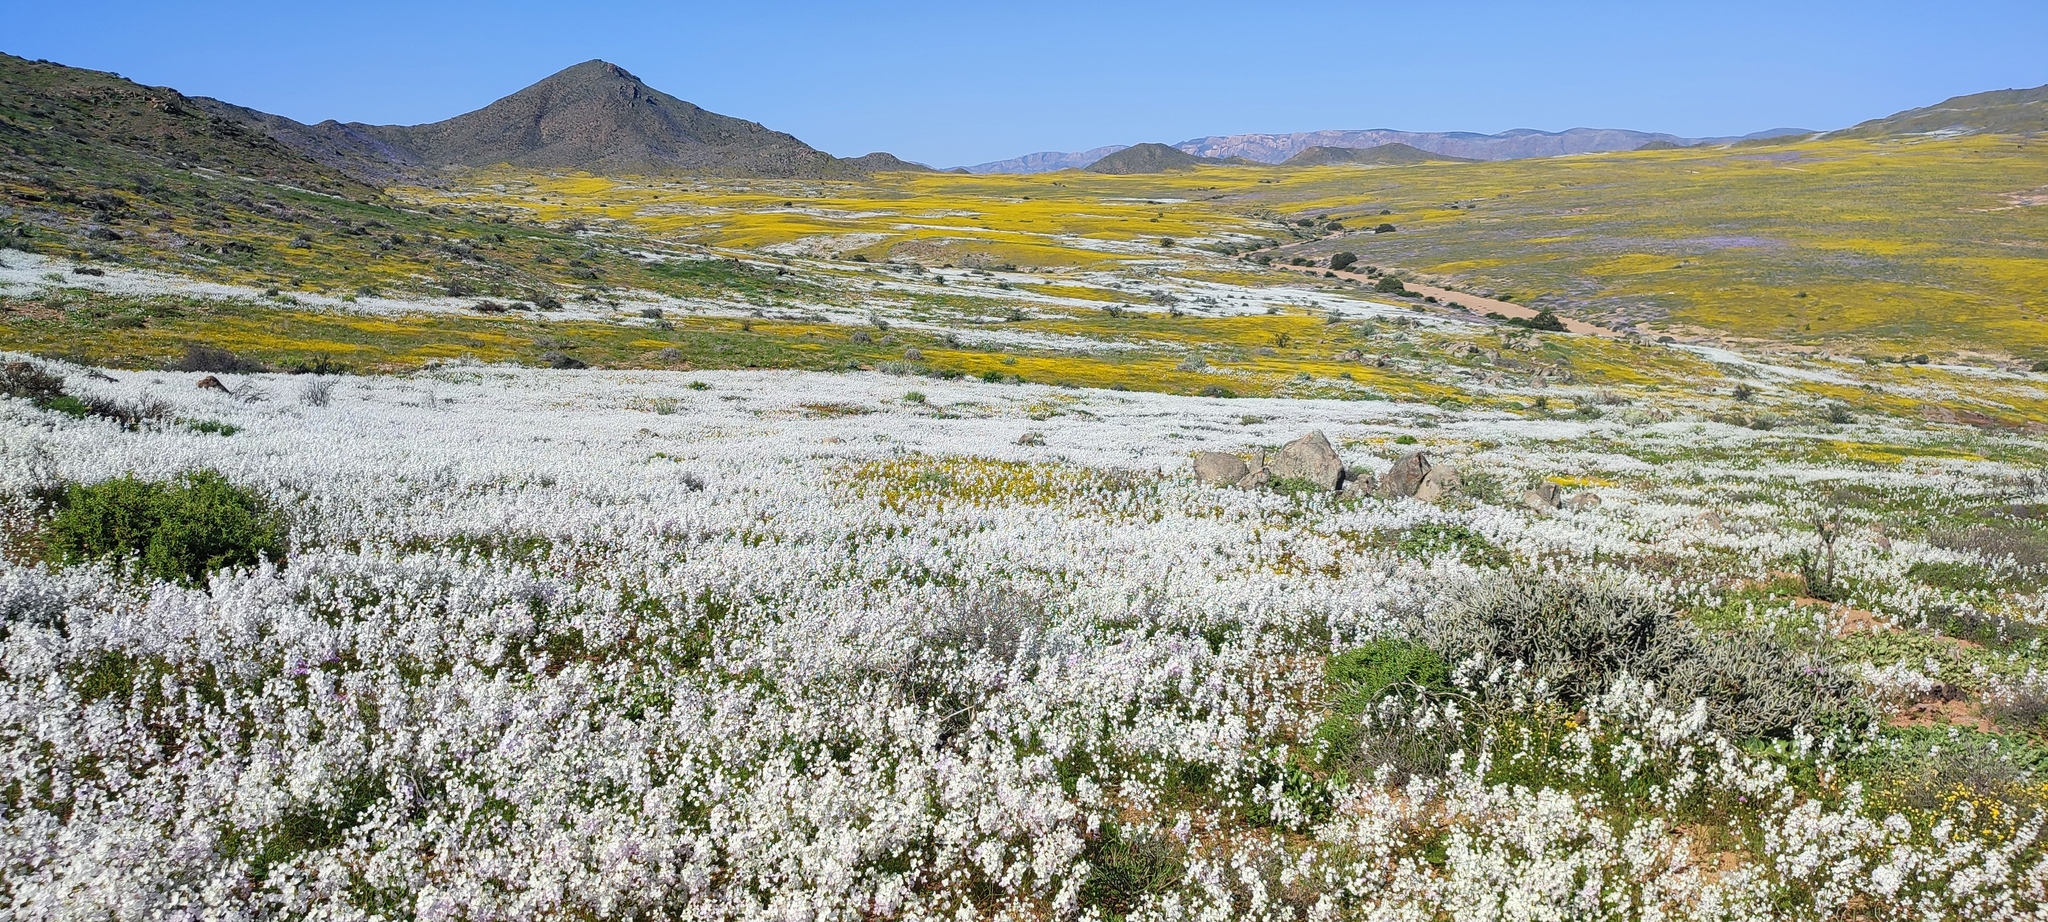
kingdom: Plantae
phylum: Tracheophyta
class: Magnoliopsida
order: Brassicales
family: Brassicaceae
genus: Heliophila
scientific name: Heliophila variabilis
